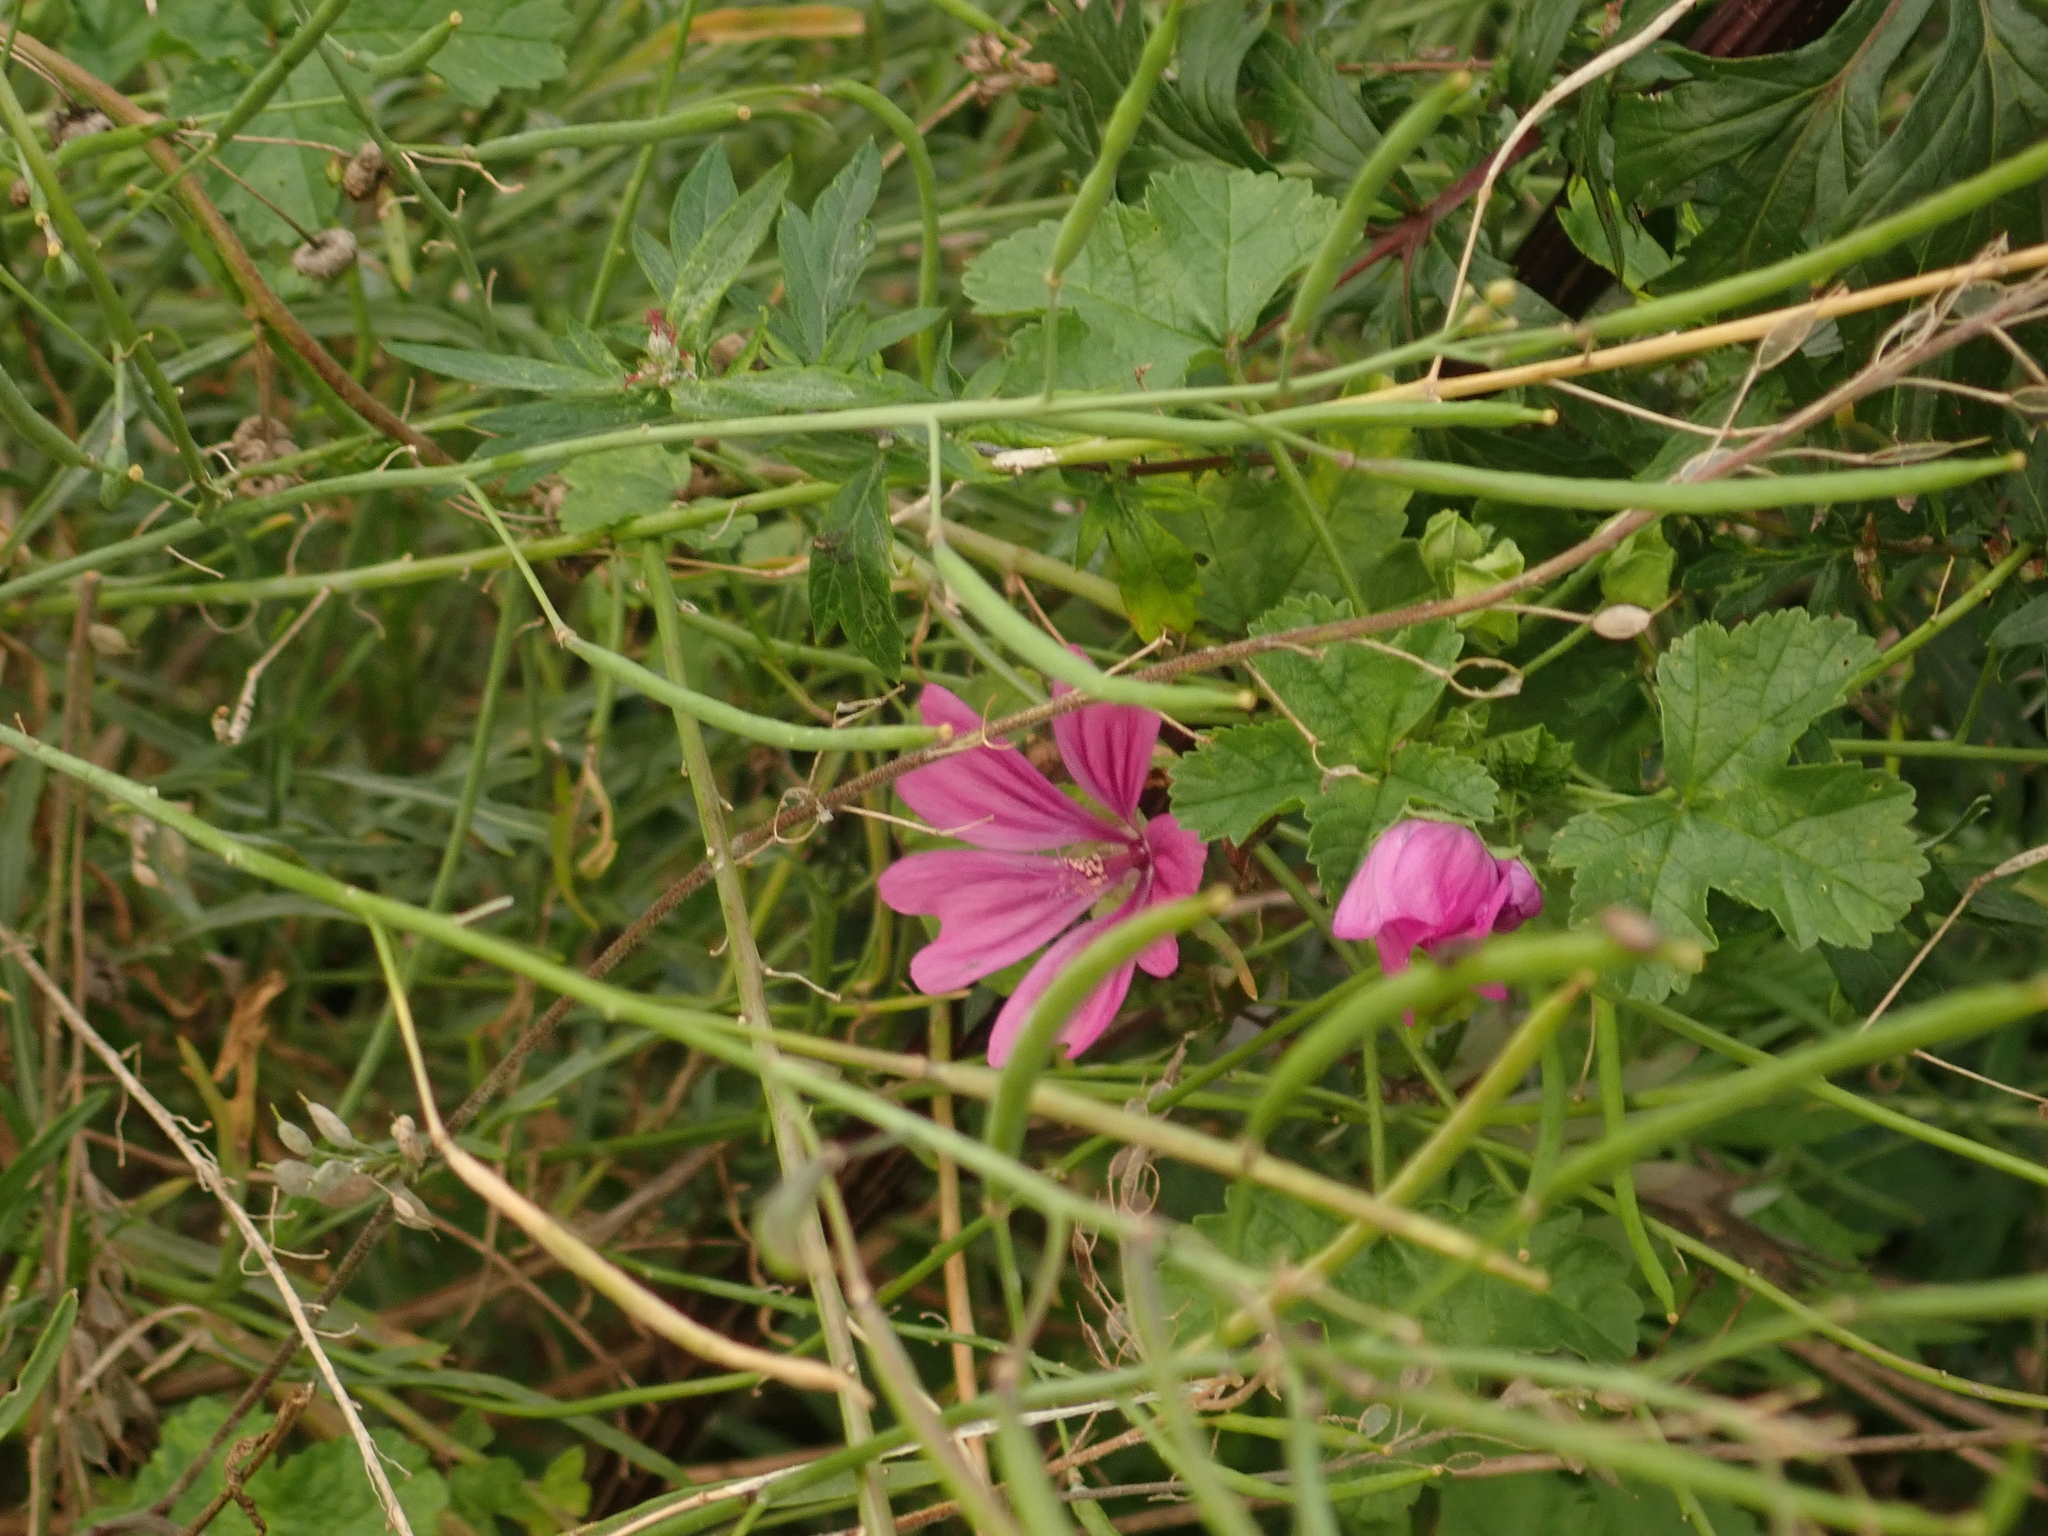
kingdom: Plantae
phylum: Tracheophyta
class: Magnoliopsida
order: Malvales
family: Malvaceae
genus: Malva
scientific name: Malva sylvestris
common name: Common mallow
